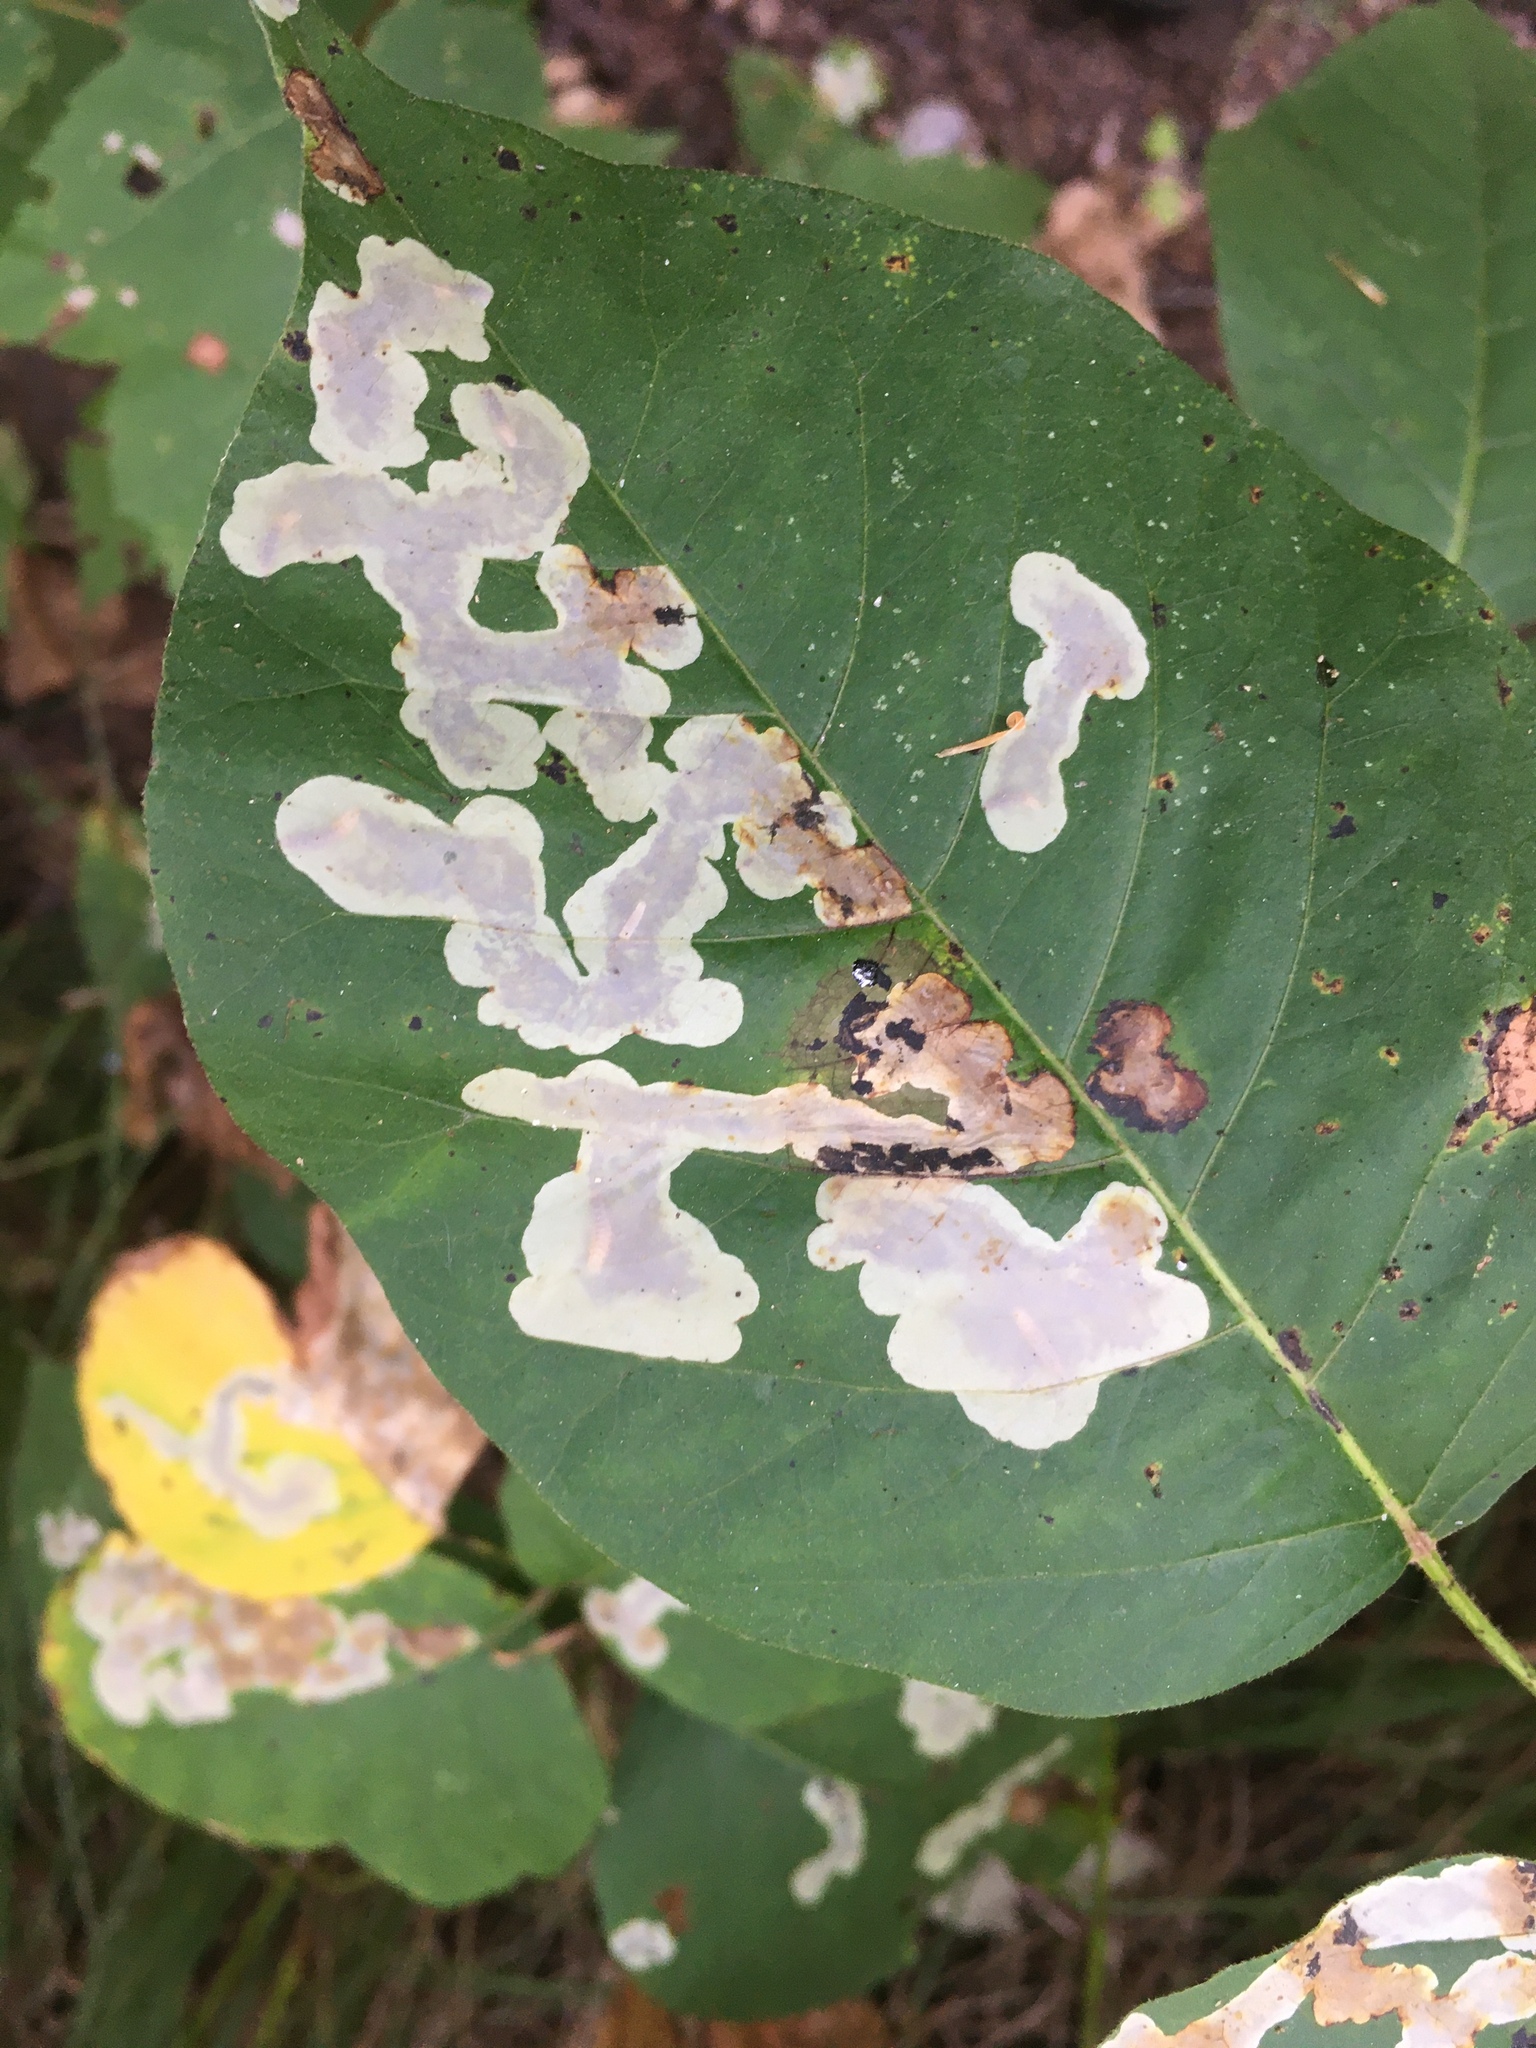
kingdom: Animalia
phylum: Arthropoda
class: Insecta
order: Lepidoptera
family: Gracillariidae
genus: Cameraria
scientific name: Cameraria guttifinitella
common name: Poison ivy leaf-miner moth
